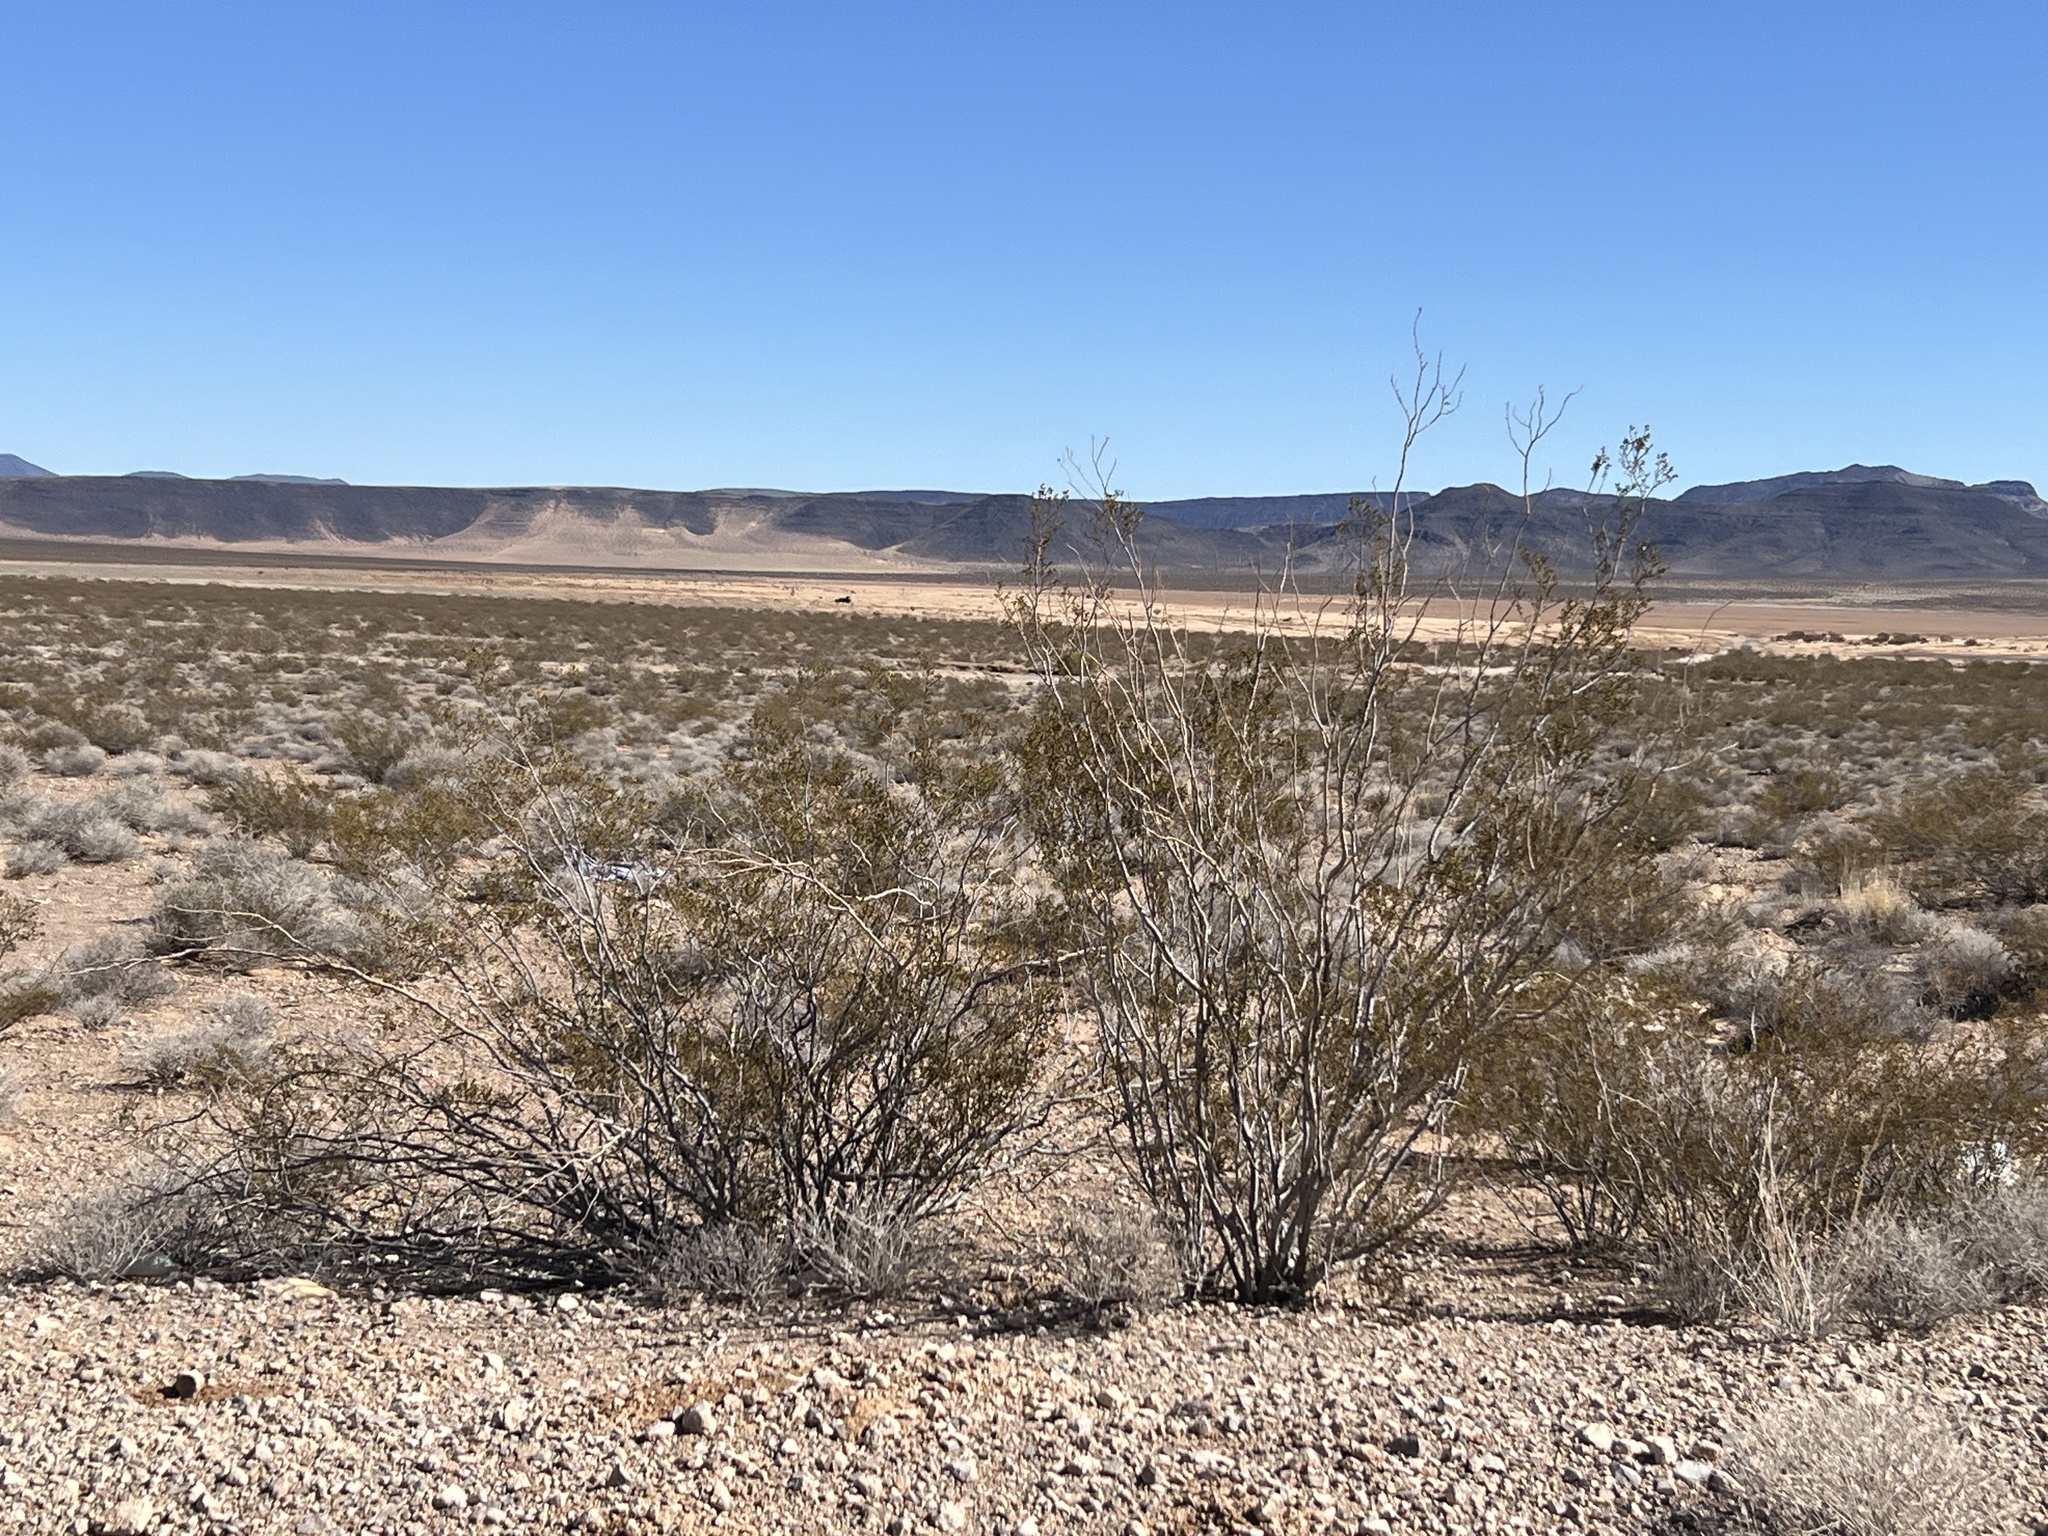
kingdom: Plantae
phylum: Tracheophyta
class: Magnoliopsida
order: Zygophyllales
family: Zygophyllaceae
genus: Larrea
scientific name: Larrea tridentata
